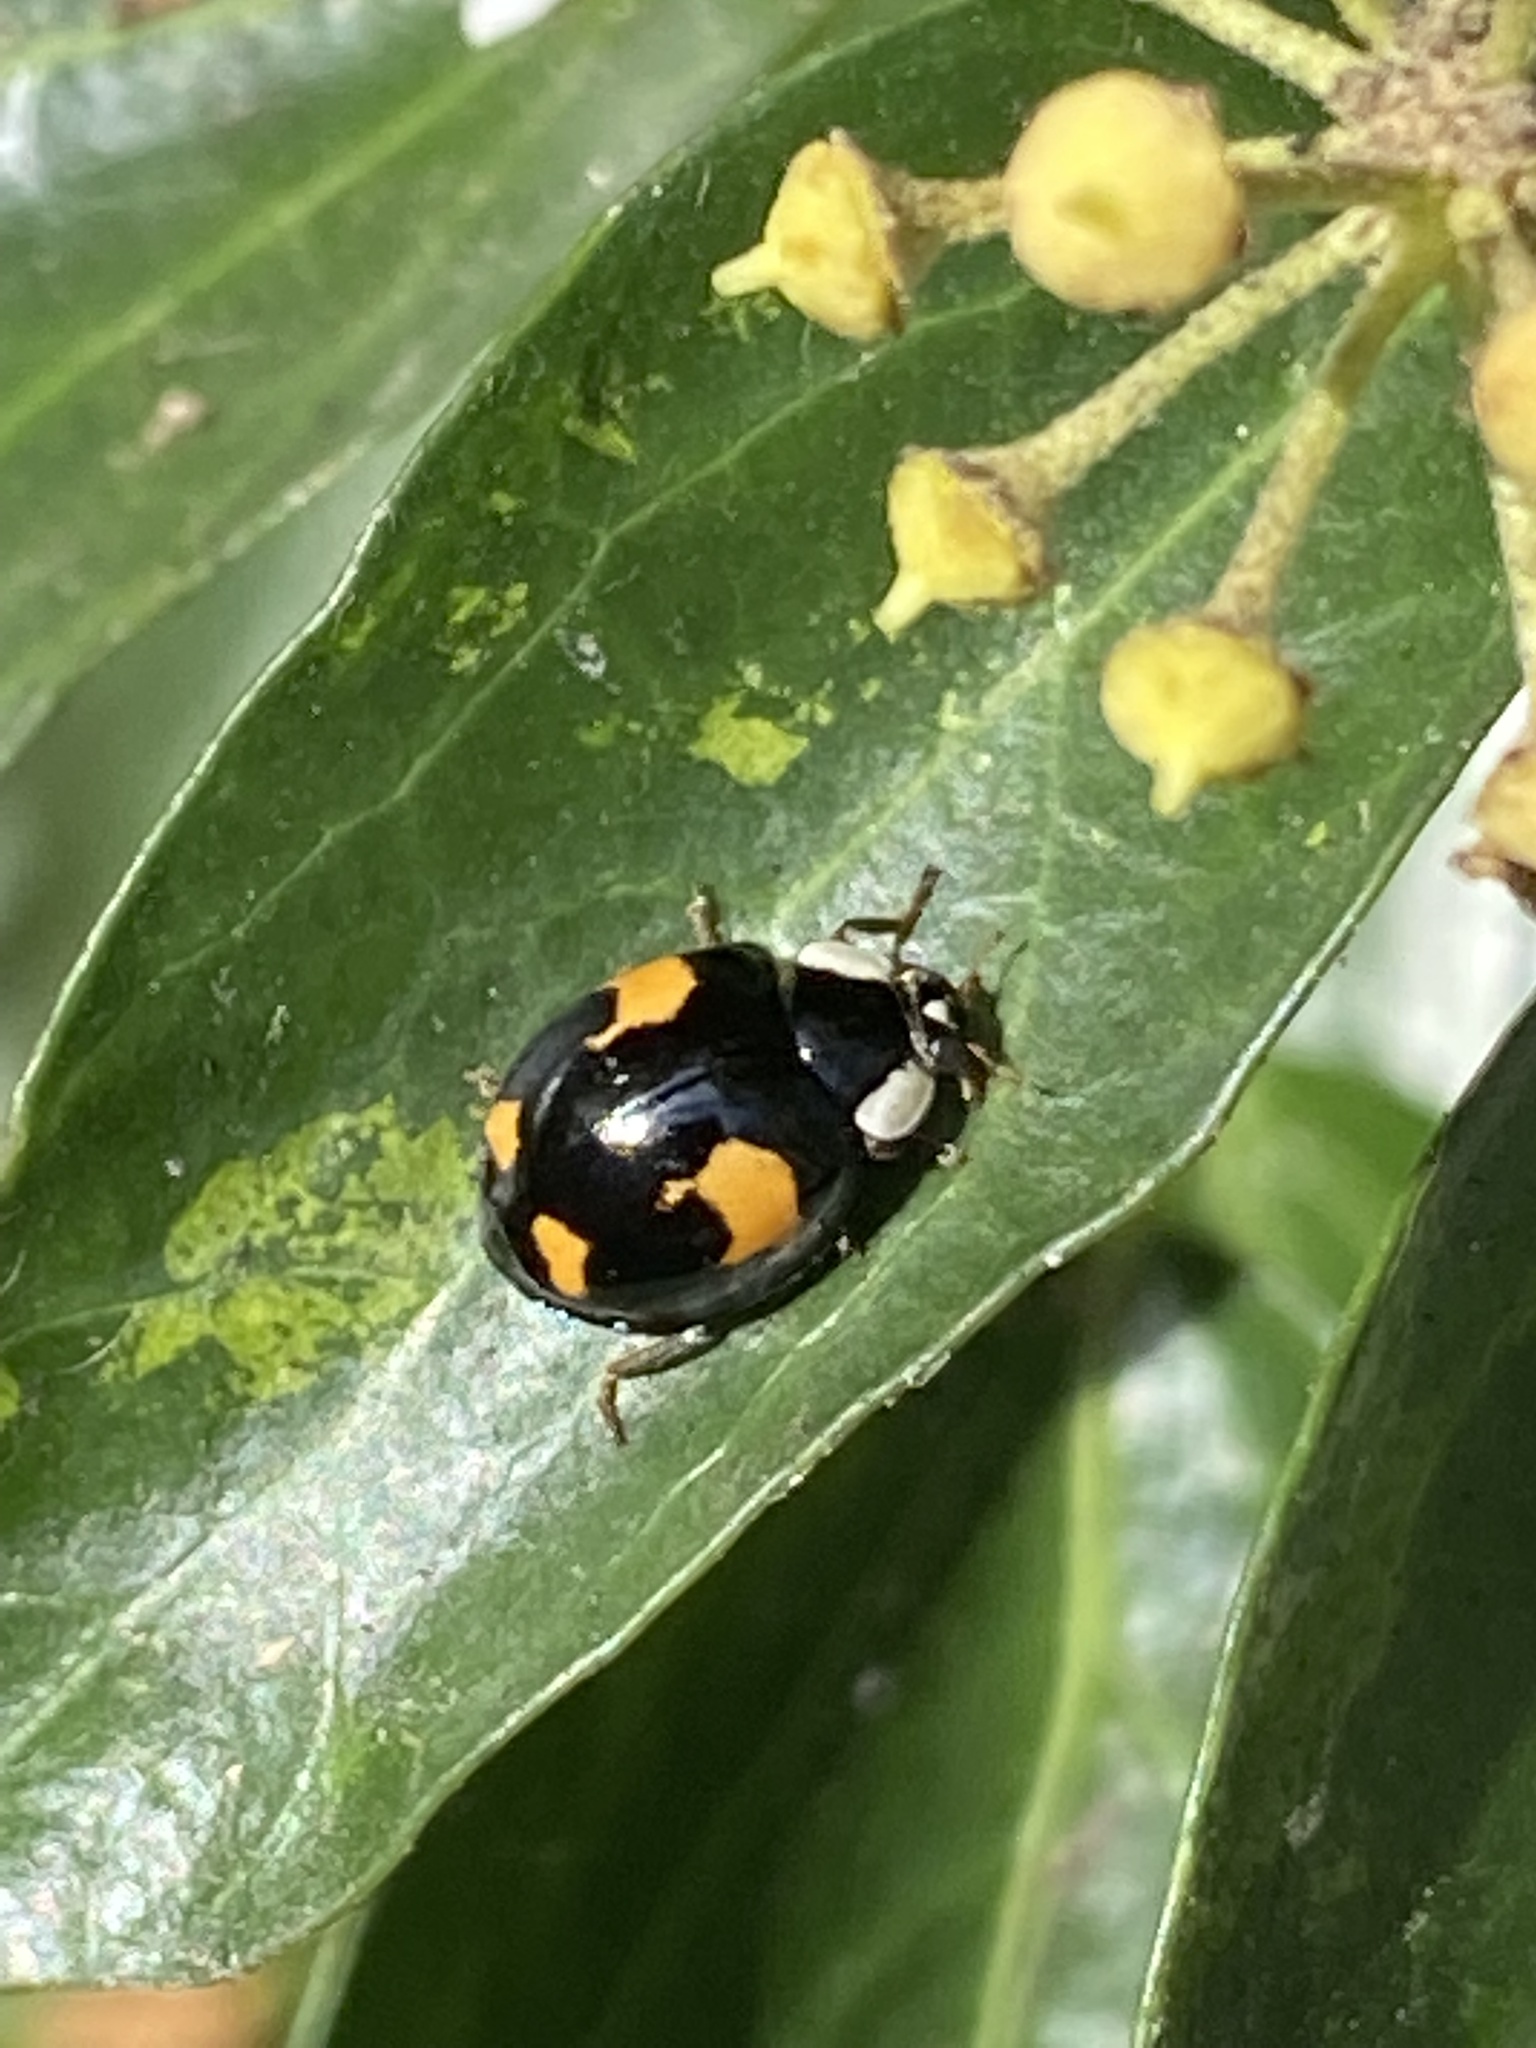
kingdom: Animalia
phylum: Arthropoda
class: Insecta
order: Coleoptera
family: Coccinellidae
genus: Harmonia
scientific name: Harmonia axyridis
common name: Harlequin ladybird
